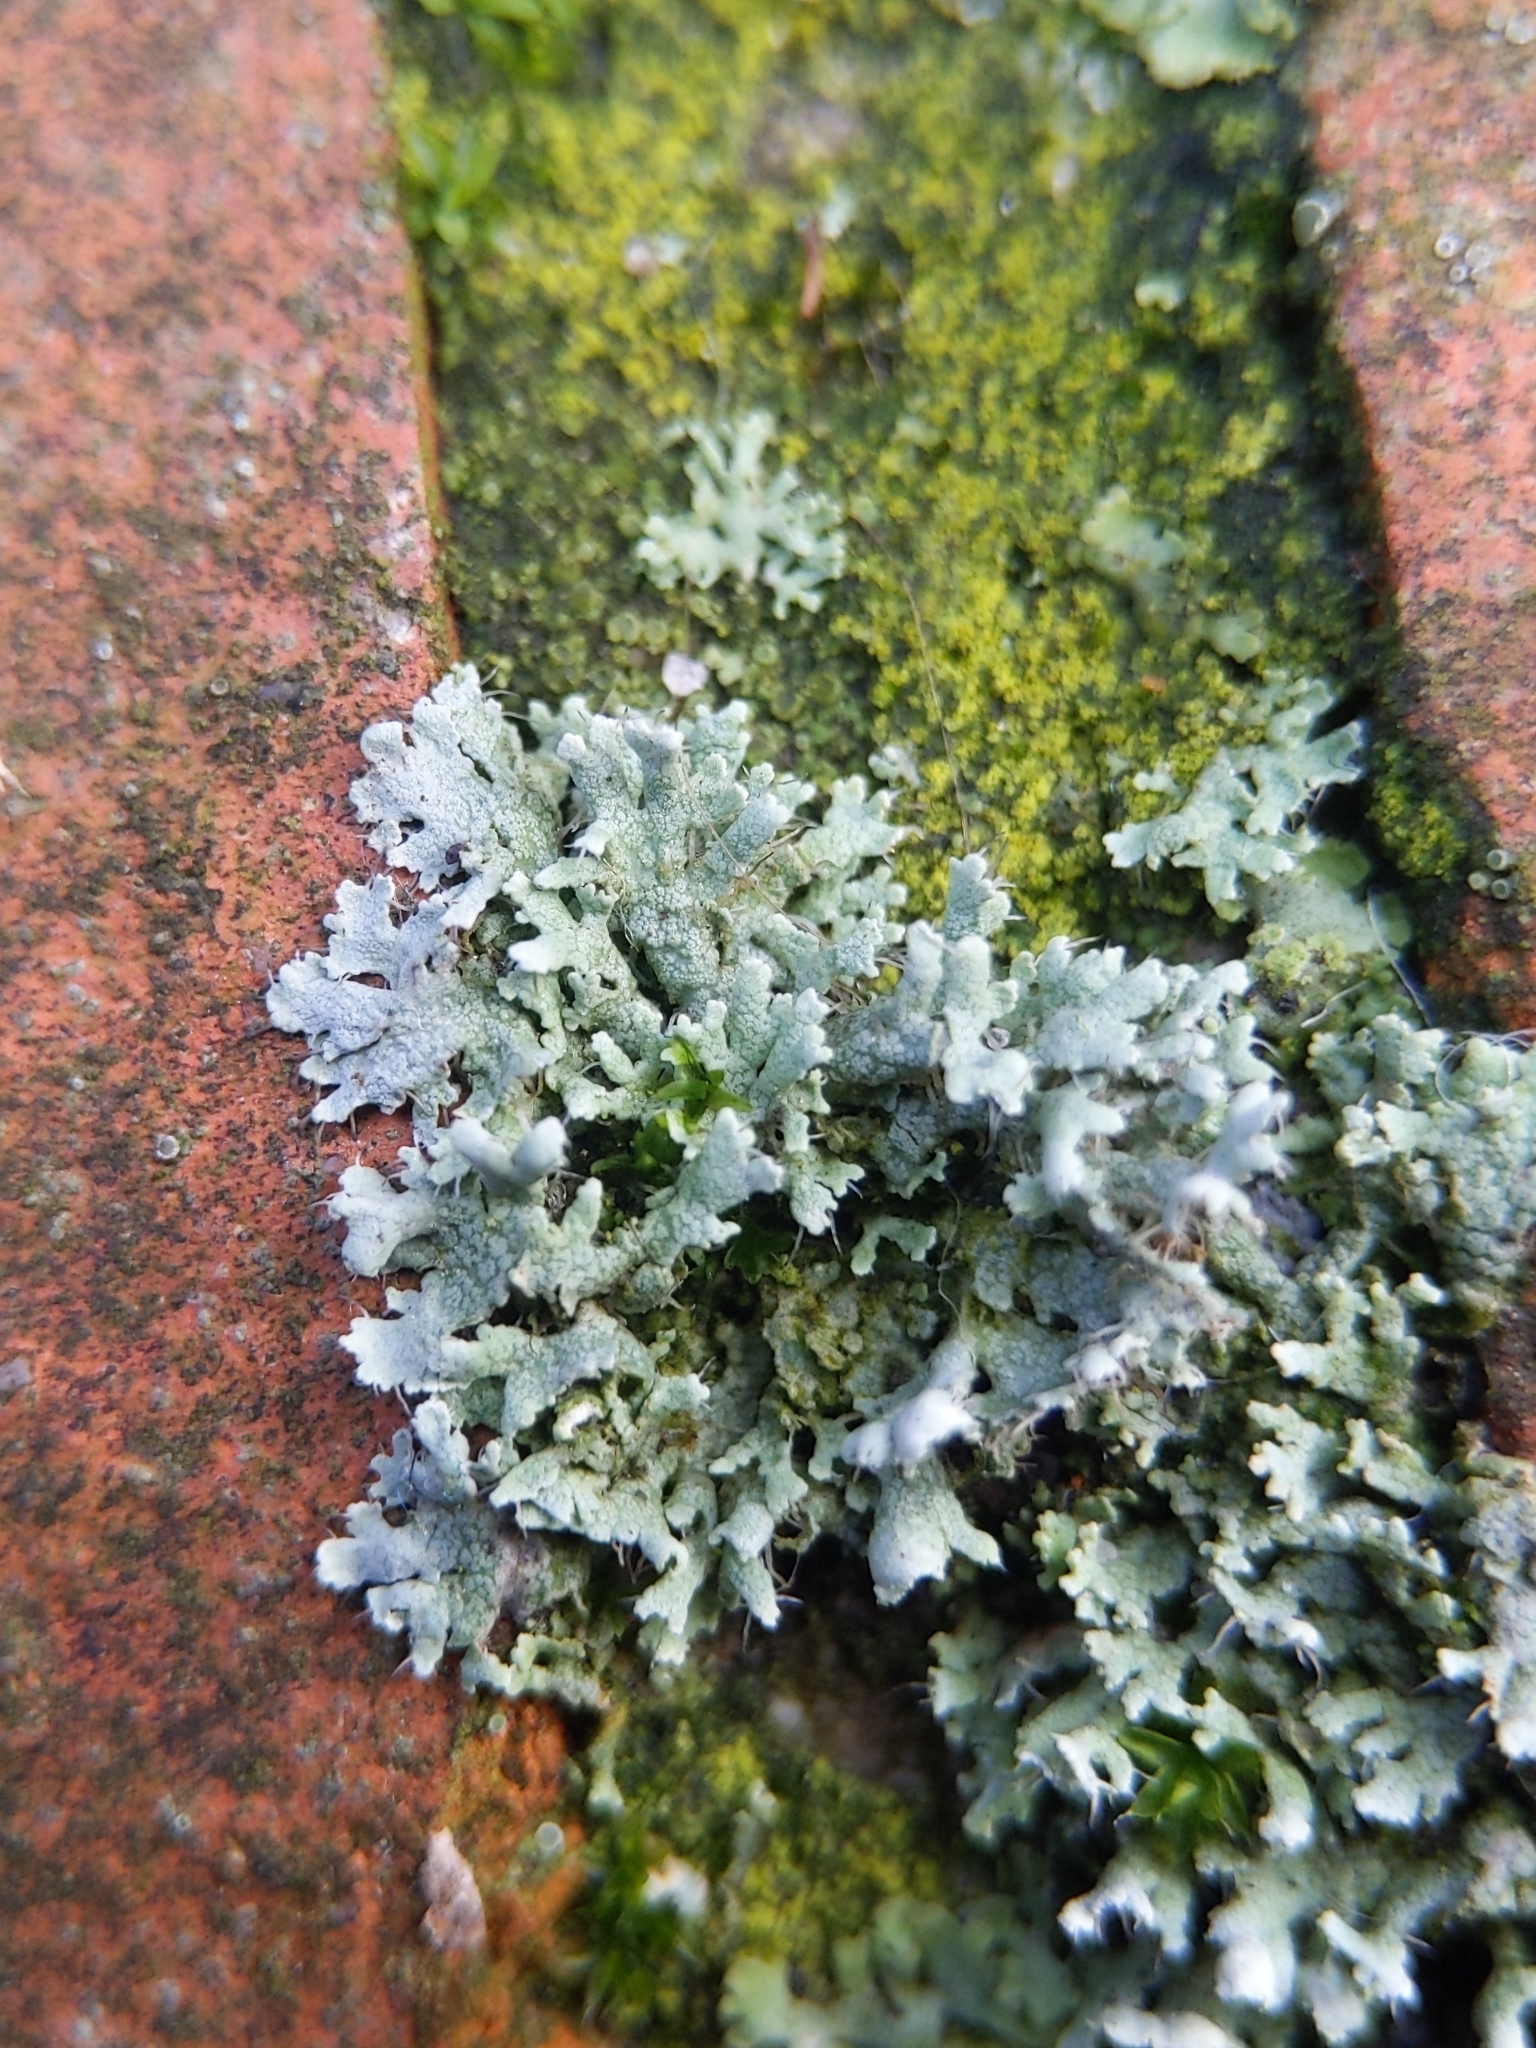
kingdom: Fungi
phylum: Ascomycota
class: Lecanoromycetes
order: Caliciales
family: Physciaceae
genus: Physcia
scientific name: Physcia adscendens
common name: Hooded rosette lichen
